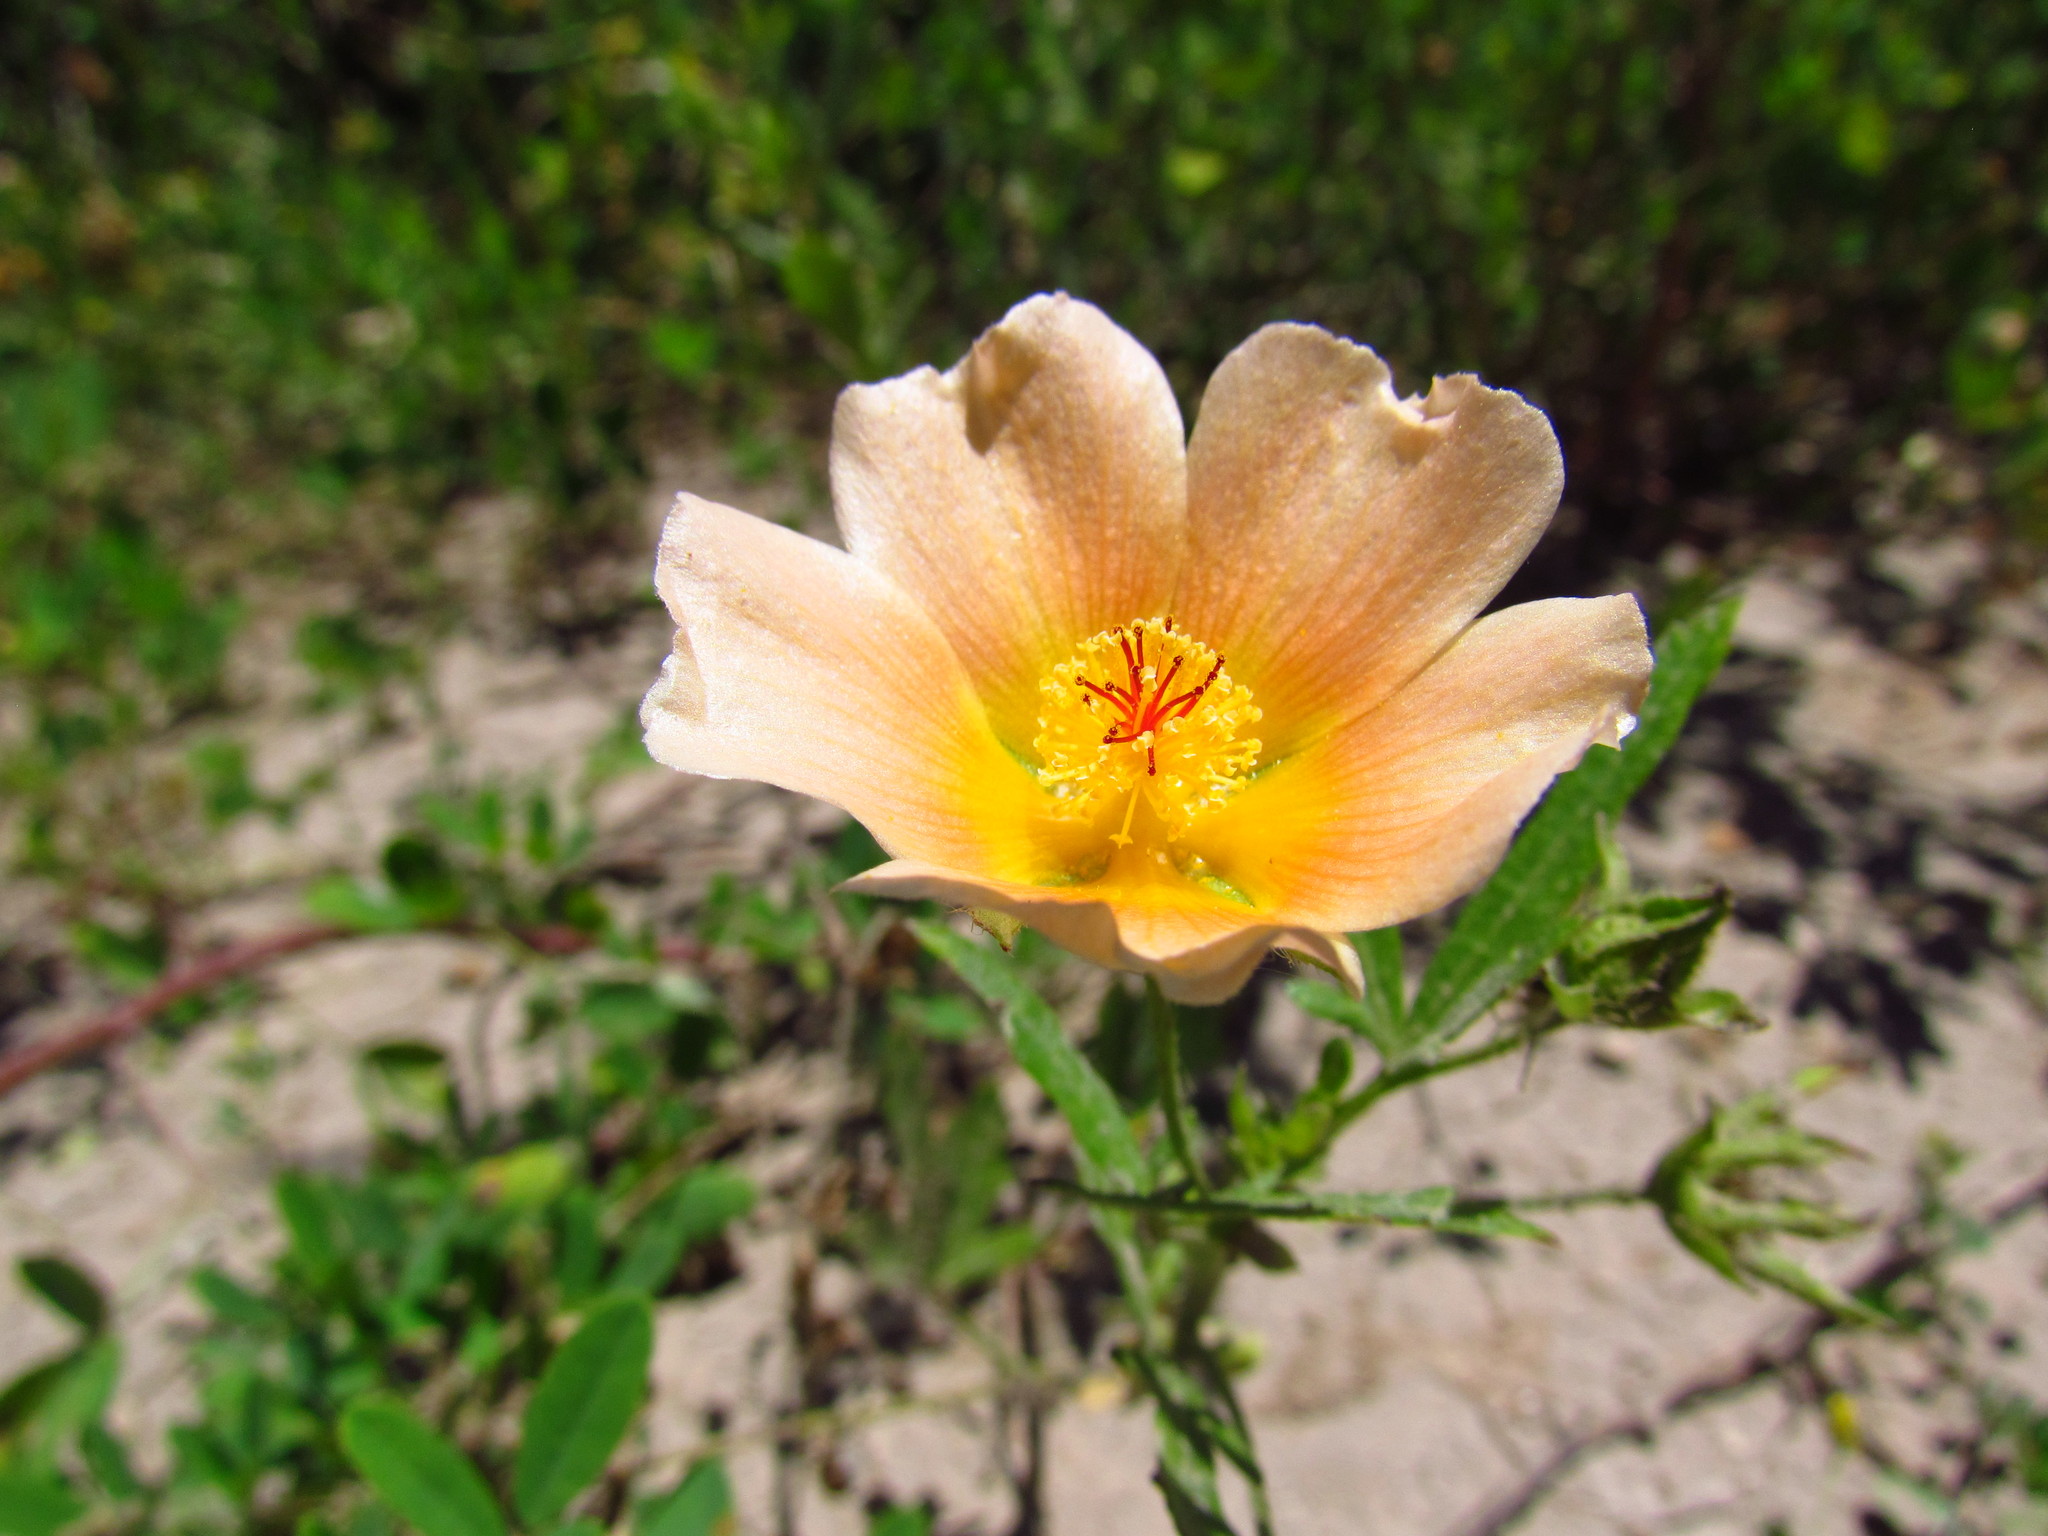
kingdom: Plantae
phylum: Tracheophyta
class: Magnoliopsida
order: Malvales
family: Malvaceae
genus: Modiolastrum
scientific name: Modiolastrum lateritium
